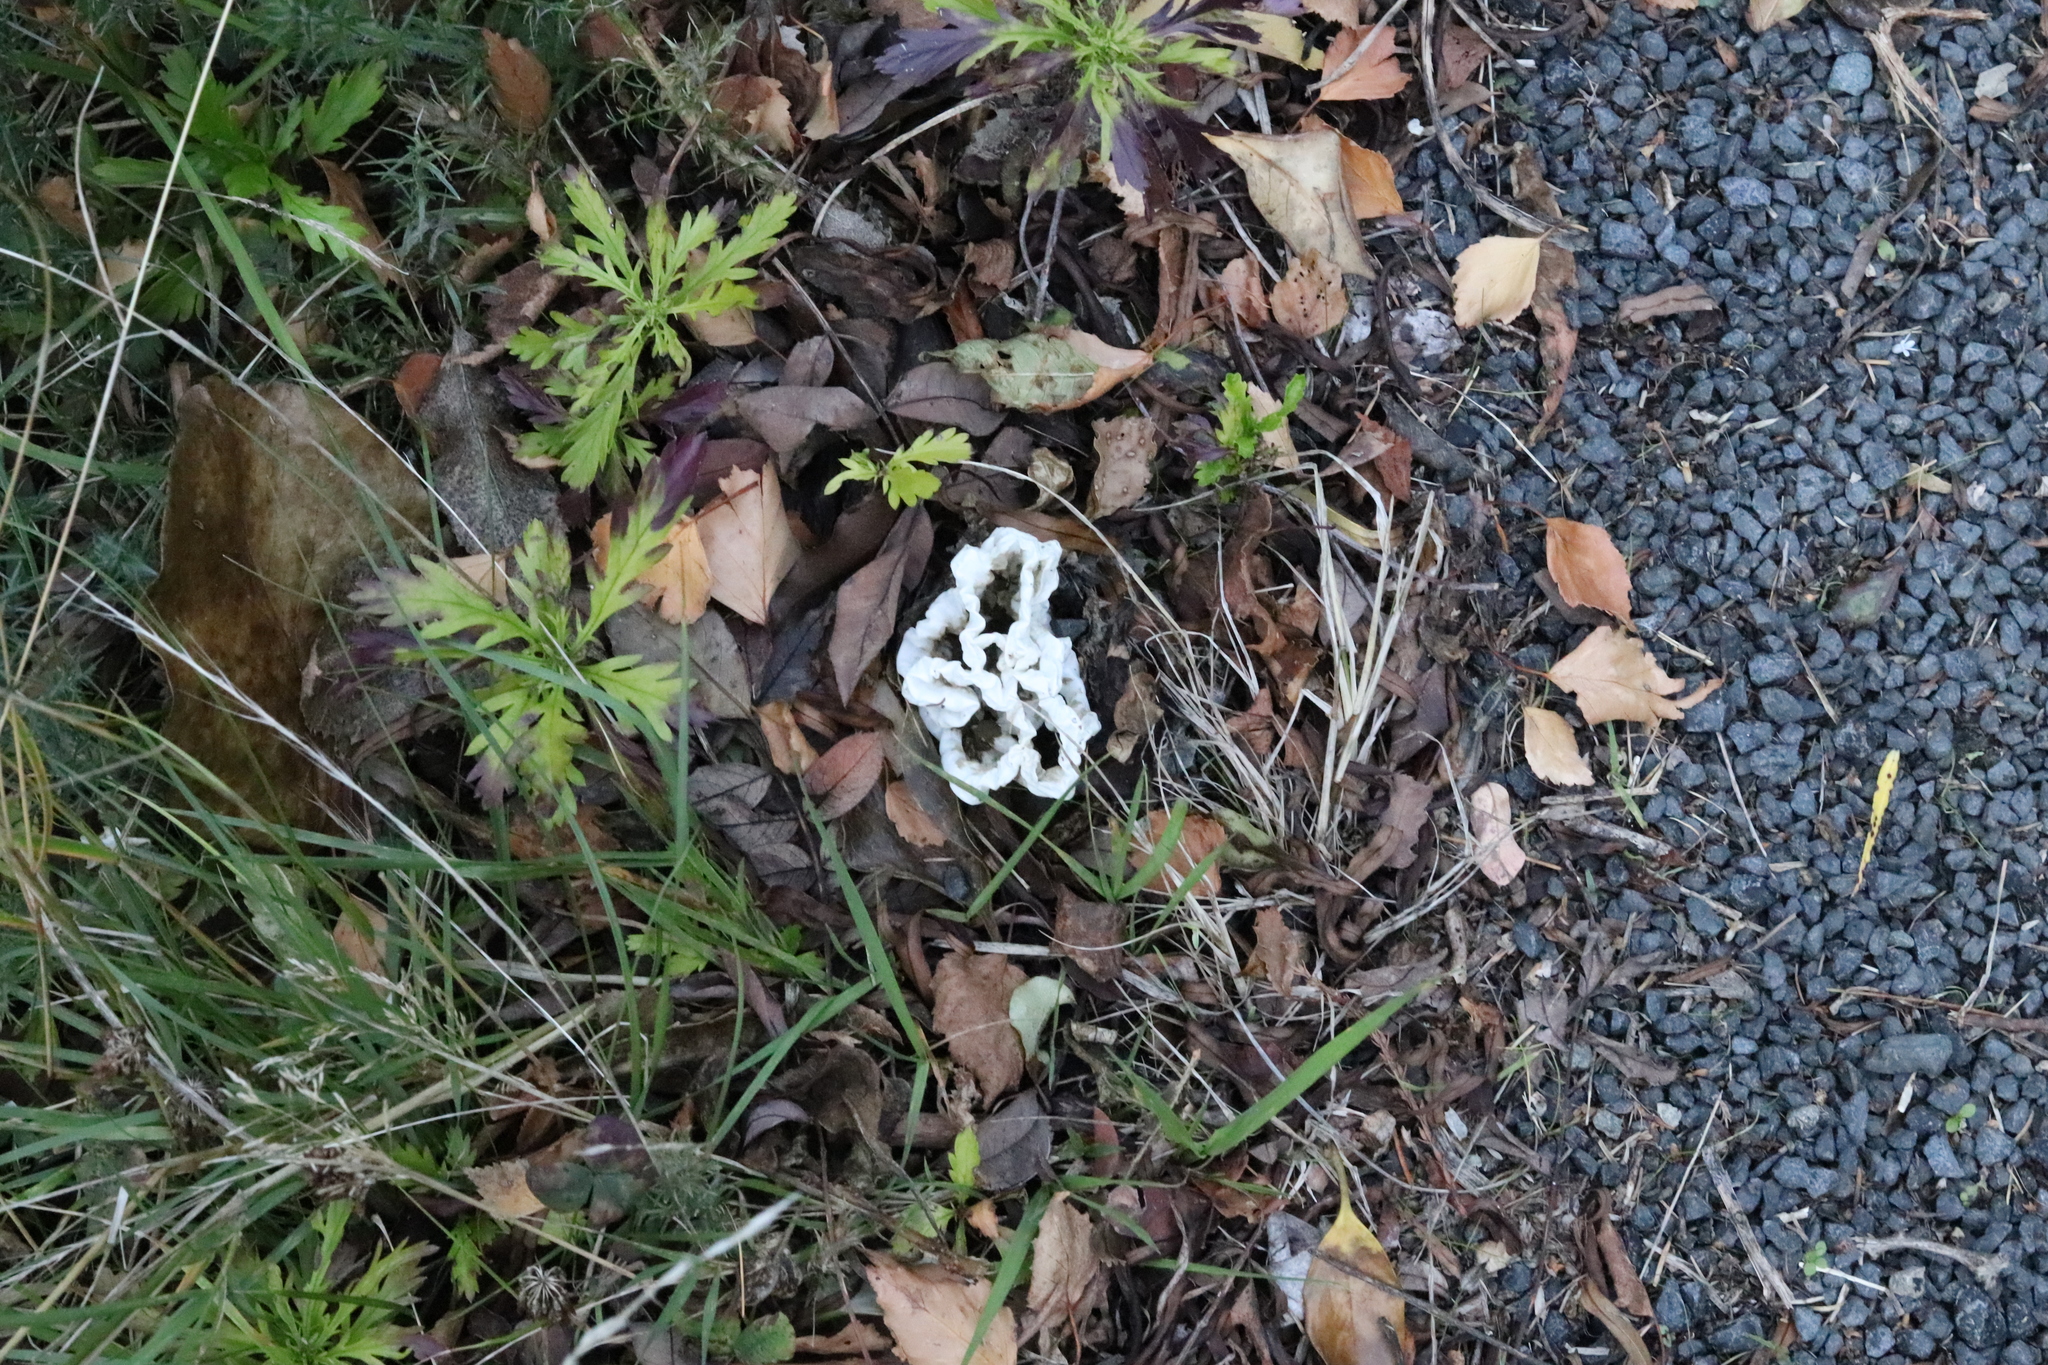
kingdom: Fungi
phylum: Basidiomycota
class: Agaricomycetes
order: Phallales
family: Phallaceae
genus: Ileodictyon
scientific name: Ileodictyon cibarium
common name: Basket fungus
